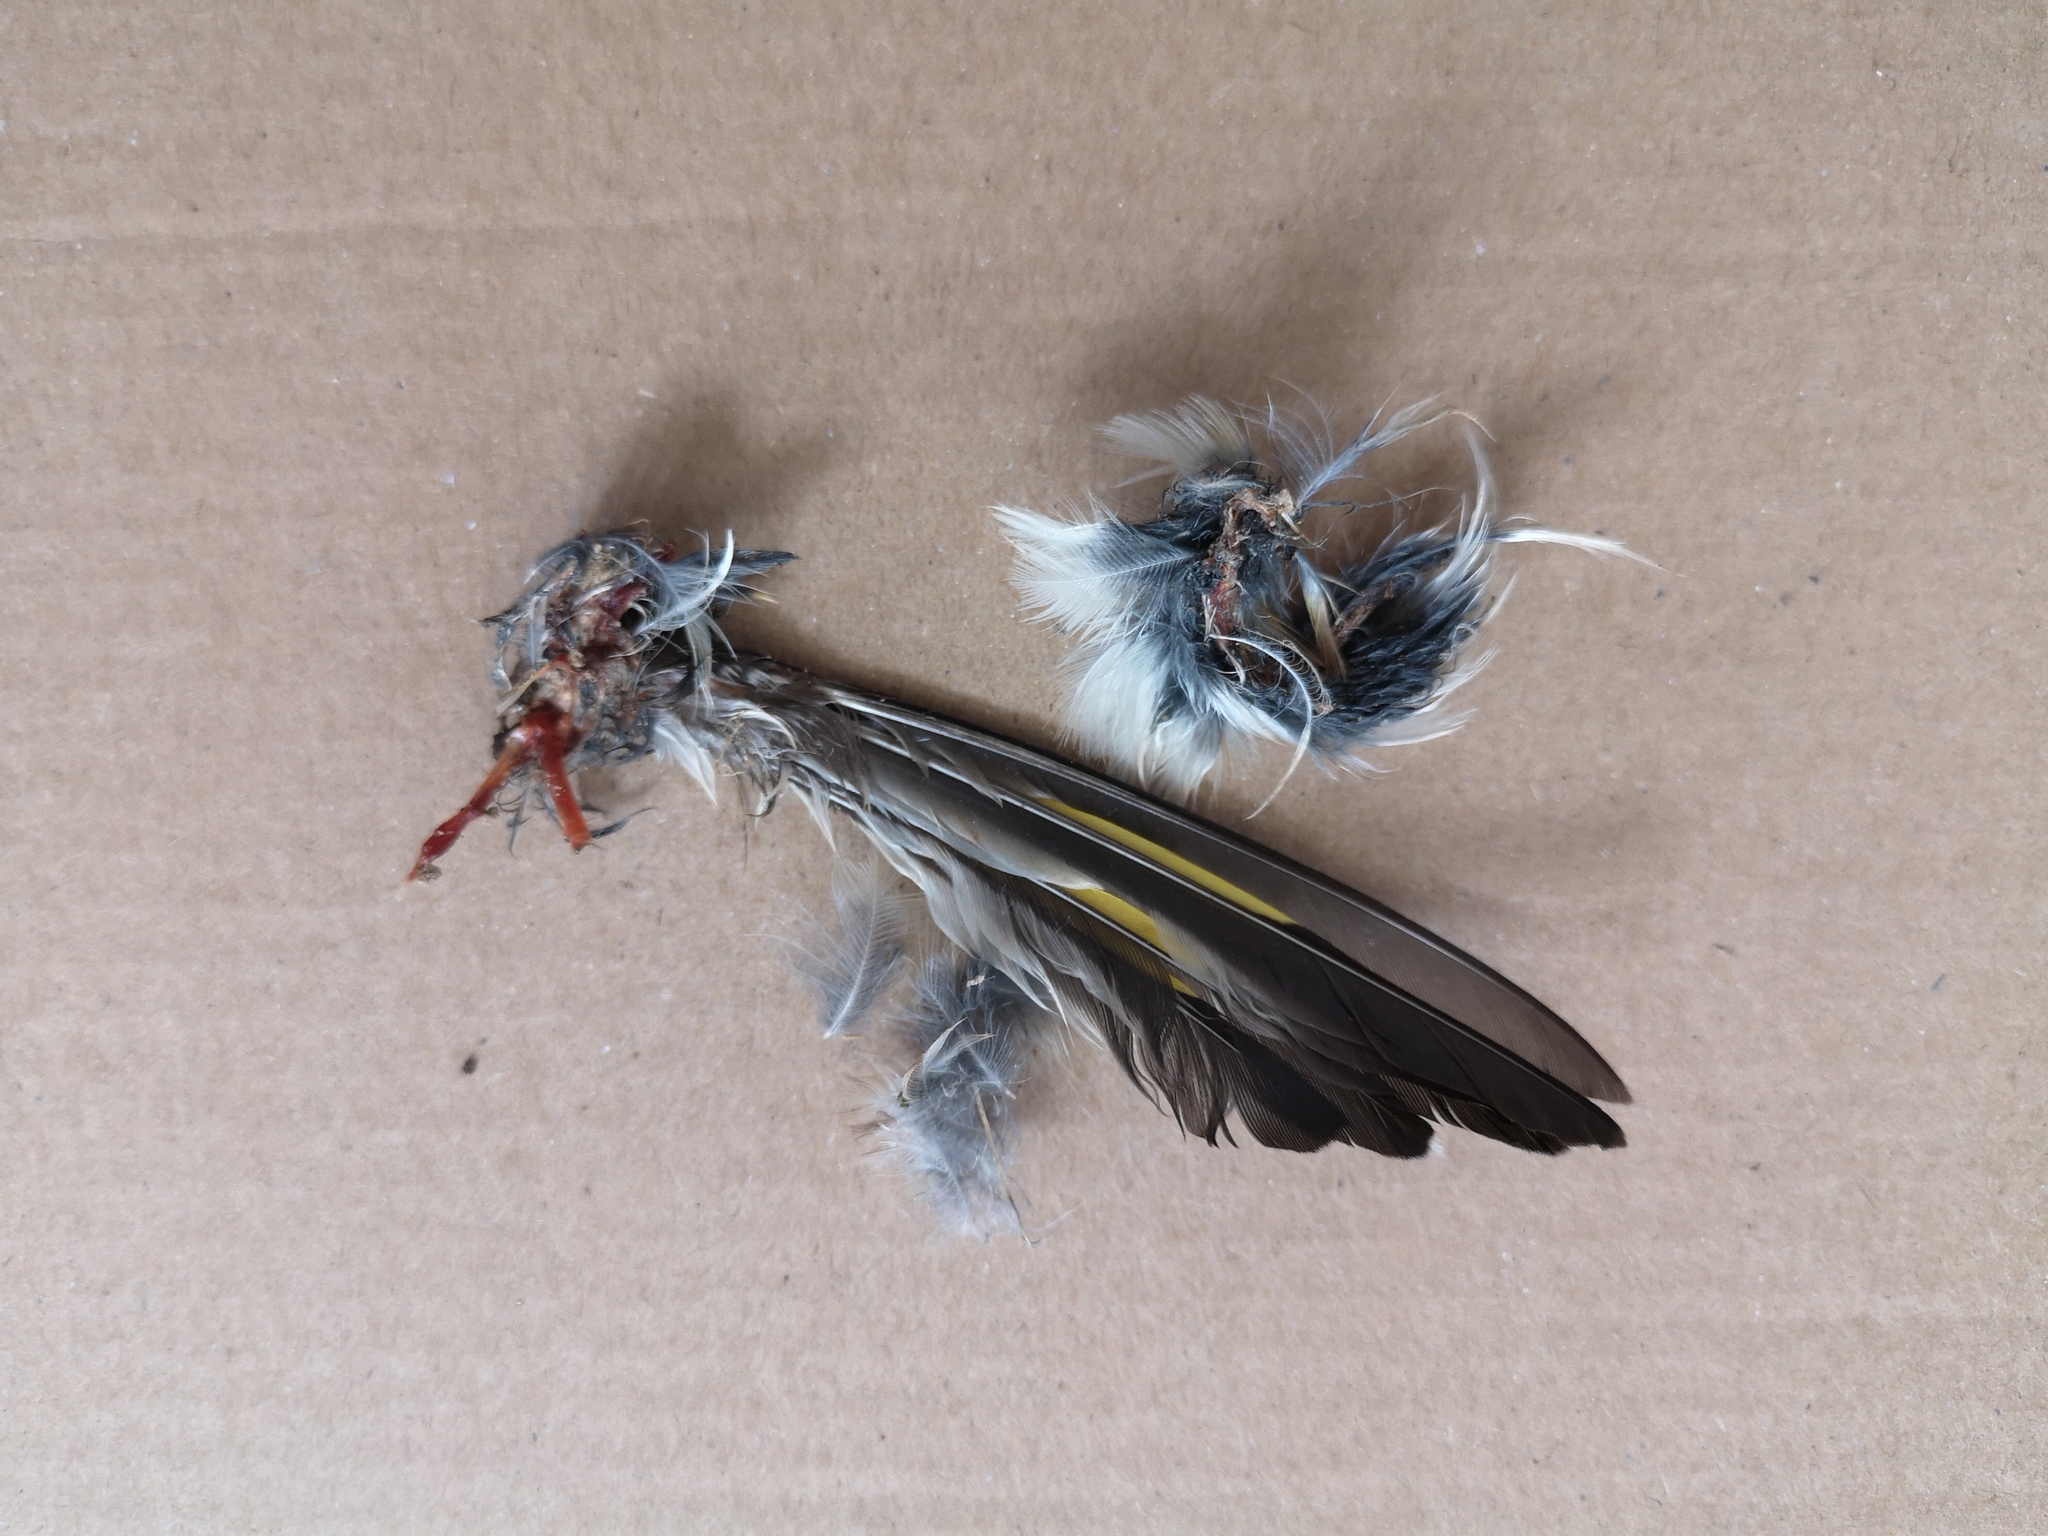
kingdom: Animalia
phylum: Chordata
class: Aves
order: Passeriformes
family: Fringillidae
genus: Carduelis
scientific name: Carduelis carduelis
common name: European goldfinch
